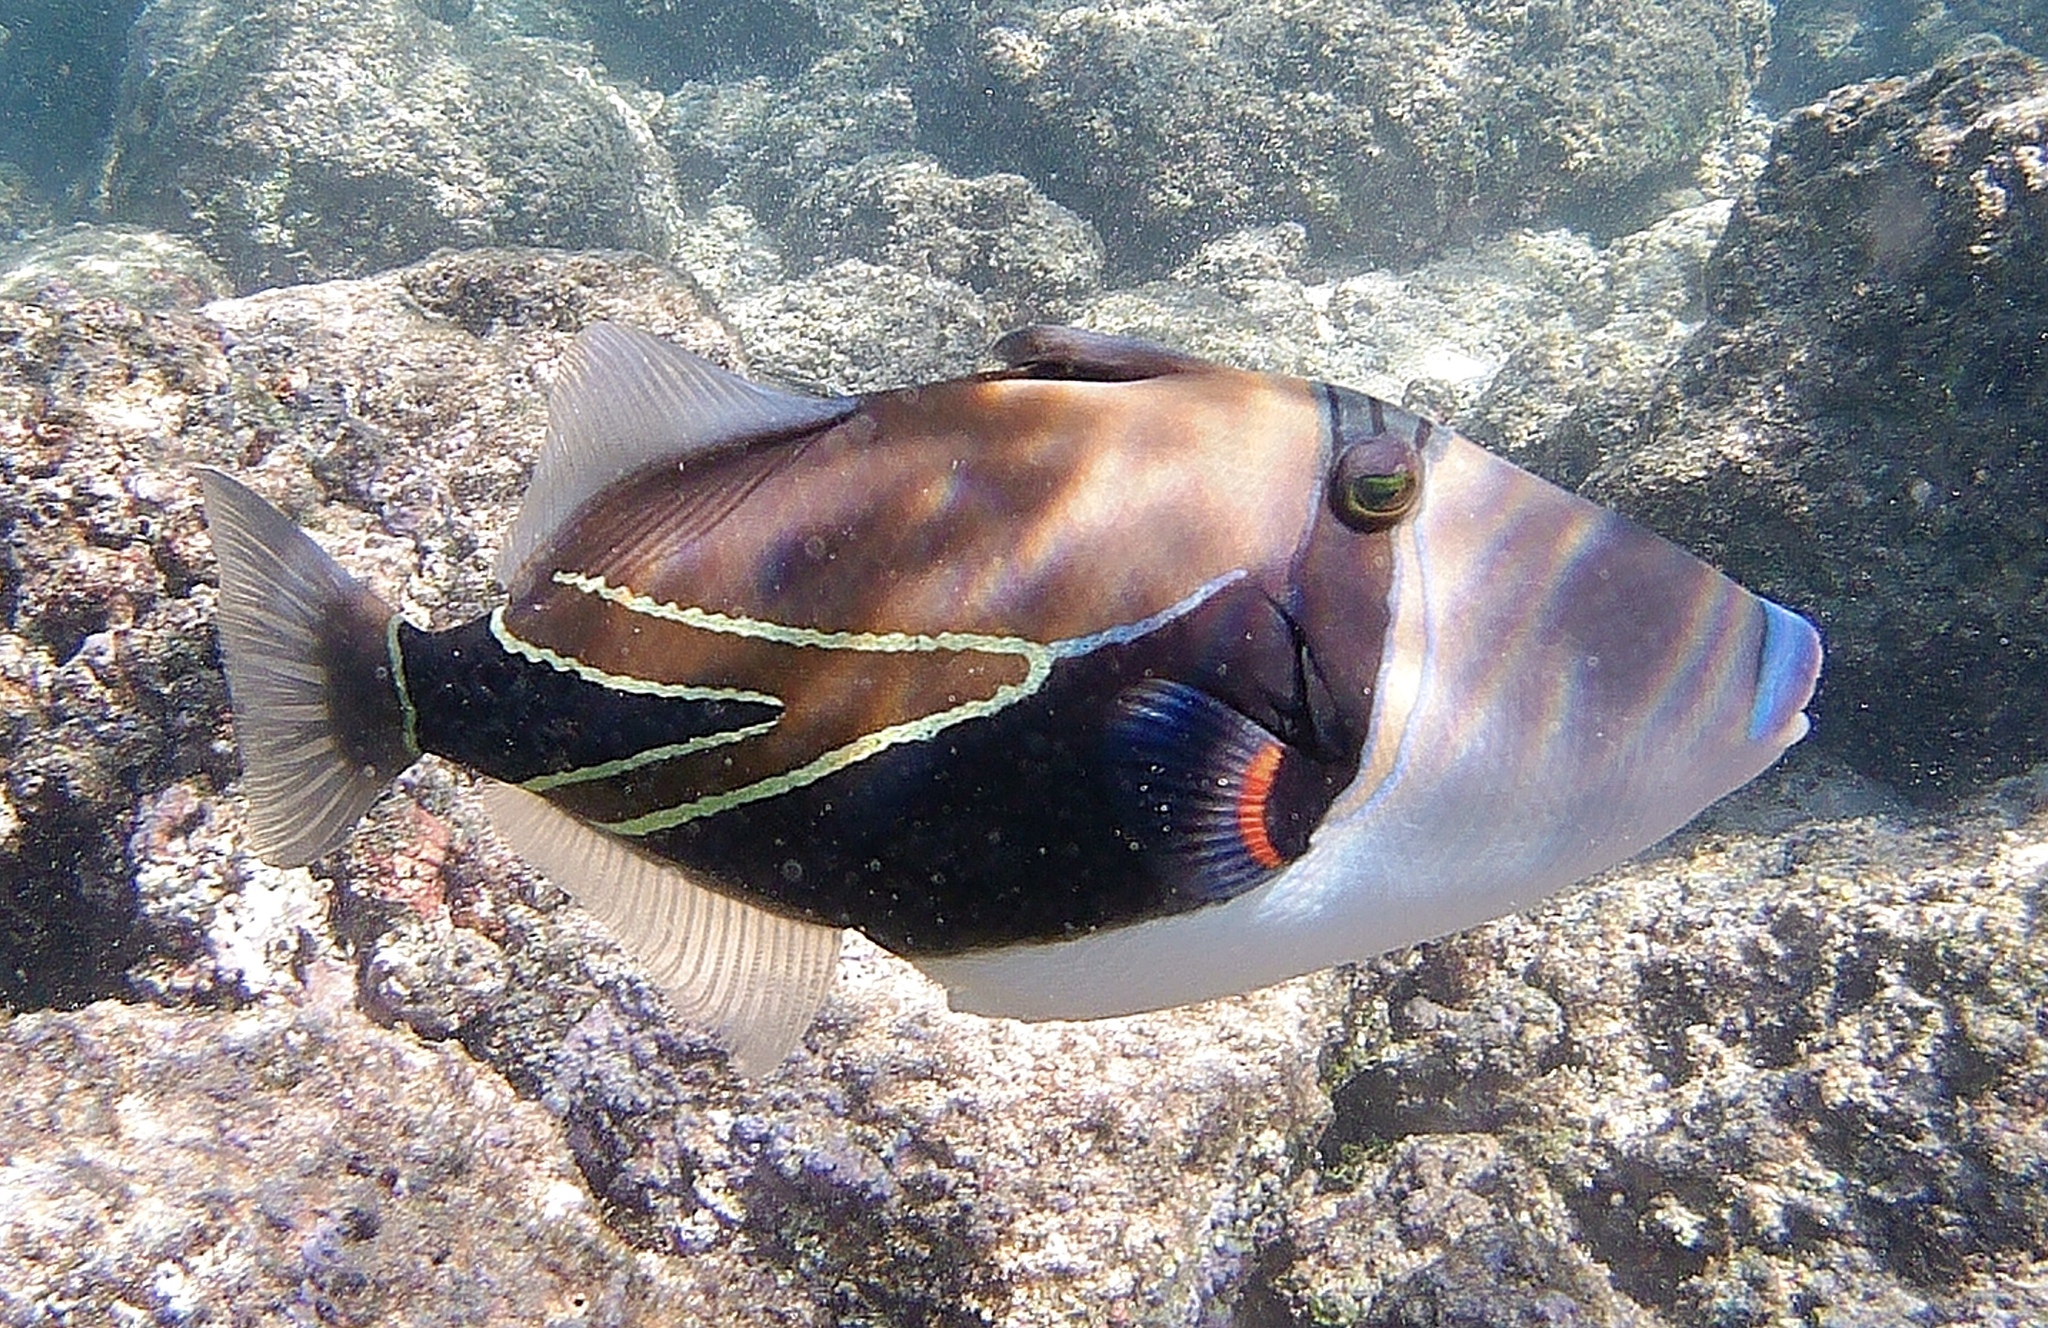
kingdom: Animalia
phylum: Chordata
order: Tetraodontiformes
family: Balistidae
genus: Rhinecanthus
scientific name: Rhinecanthus rectangulus
